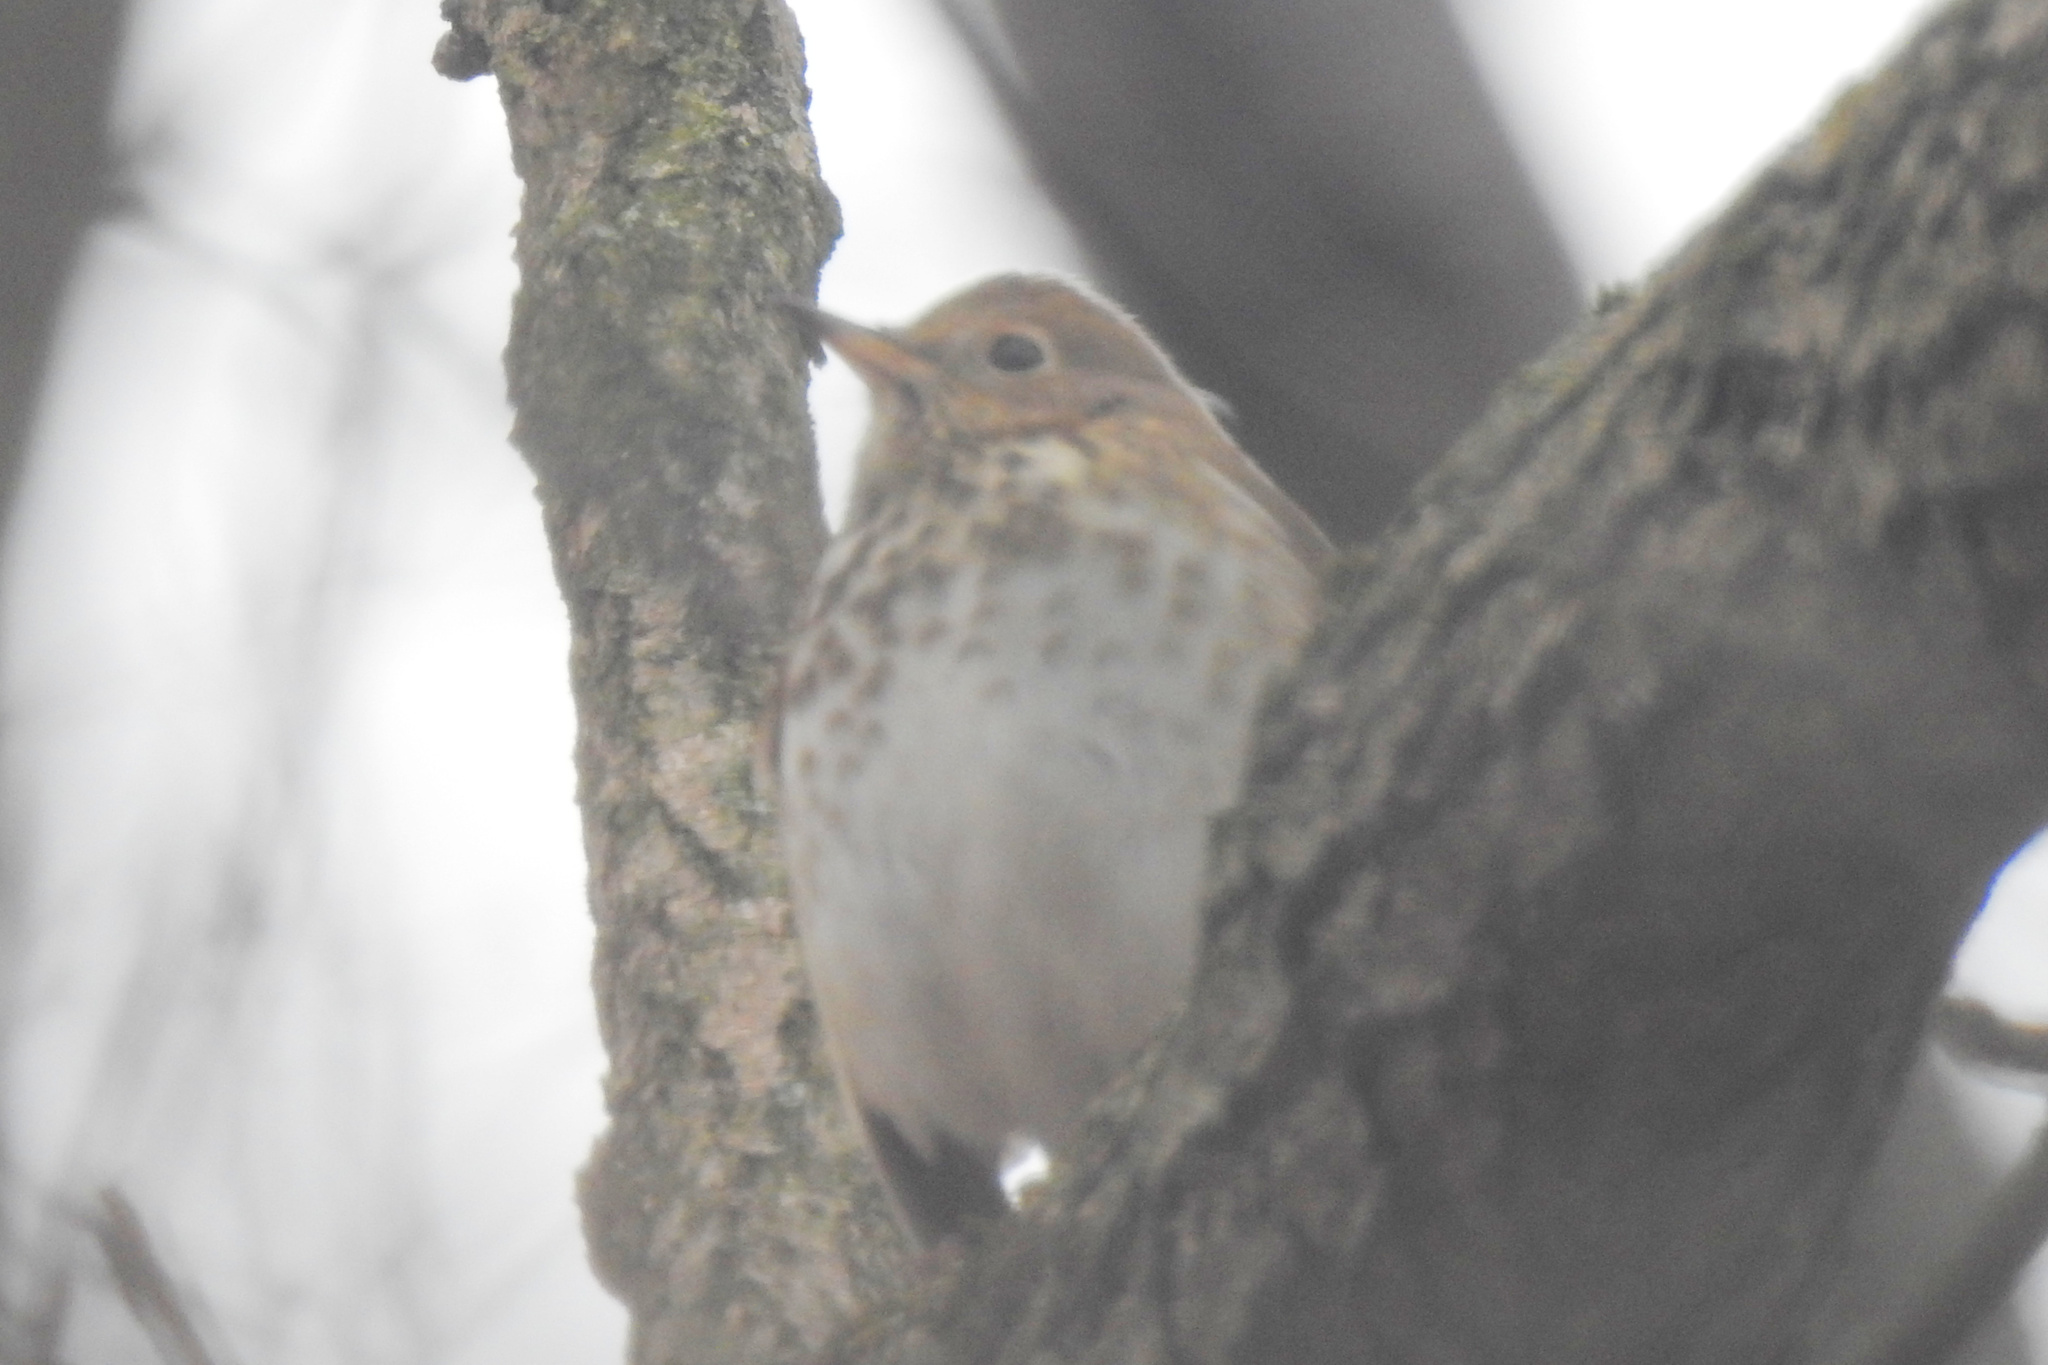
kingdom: Animalia
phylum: Chordata
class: Aves
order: Passeriformes
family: Turdidae
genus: Catharus
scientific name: Catharus guttatus
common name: Hermit thrush
